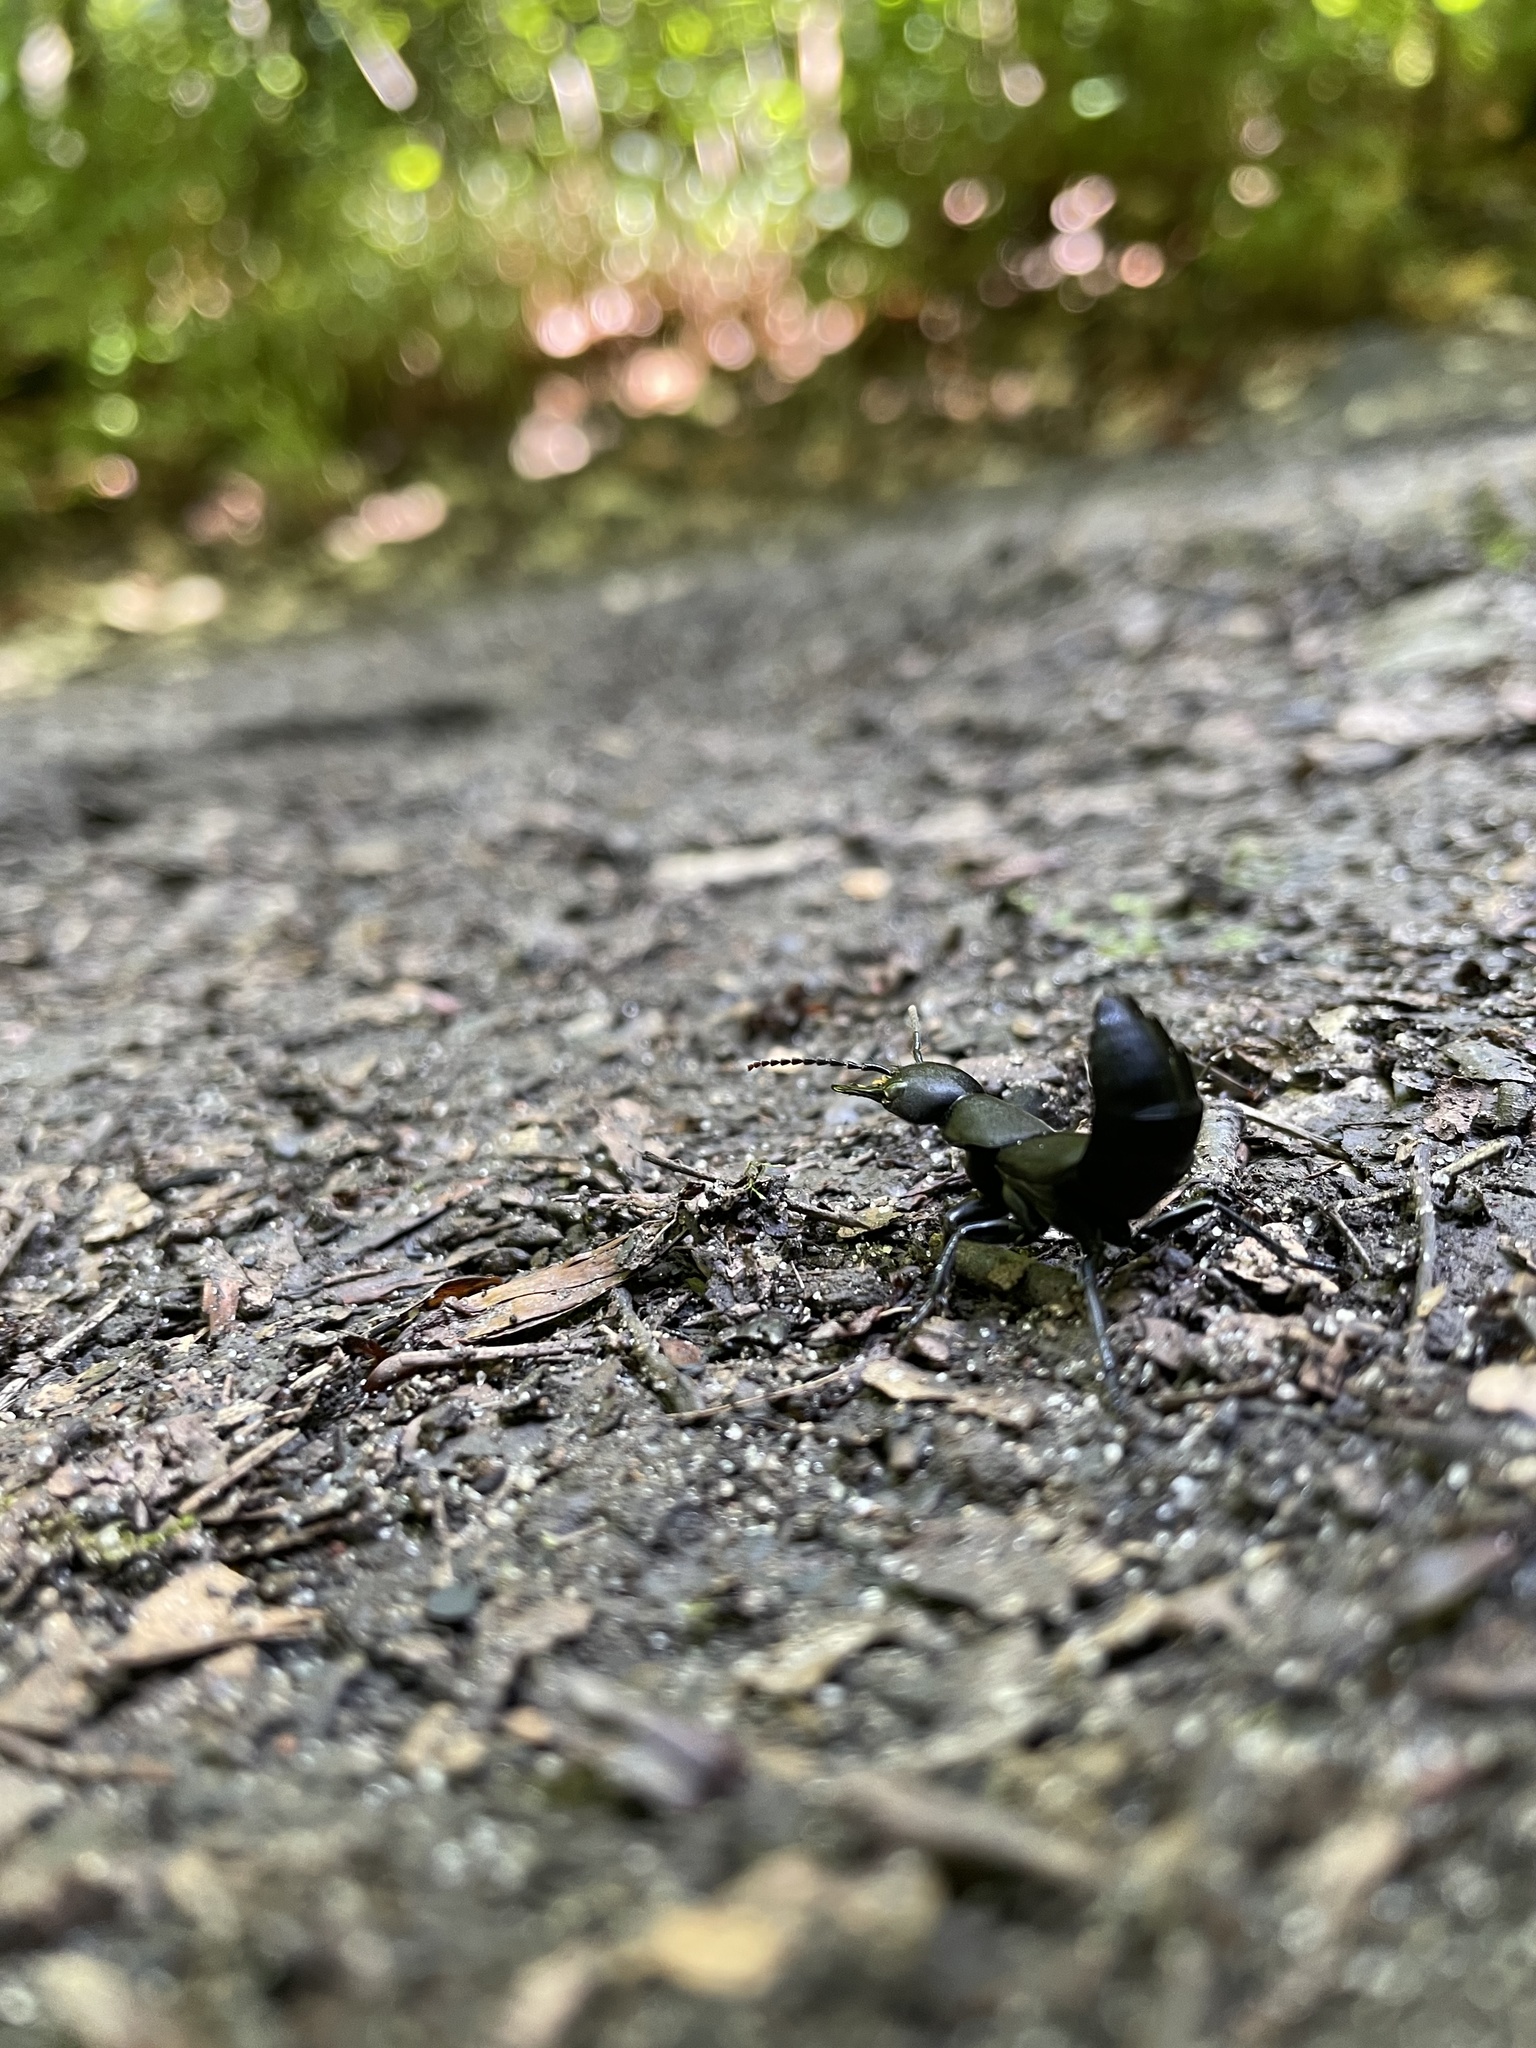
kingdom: Animalia
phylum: Arthropoda
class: Insecta
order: Coleoptera
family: Staphylinidae
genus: Ocypus
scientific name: Ocypus olens
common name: Devil's coach-horse
